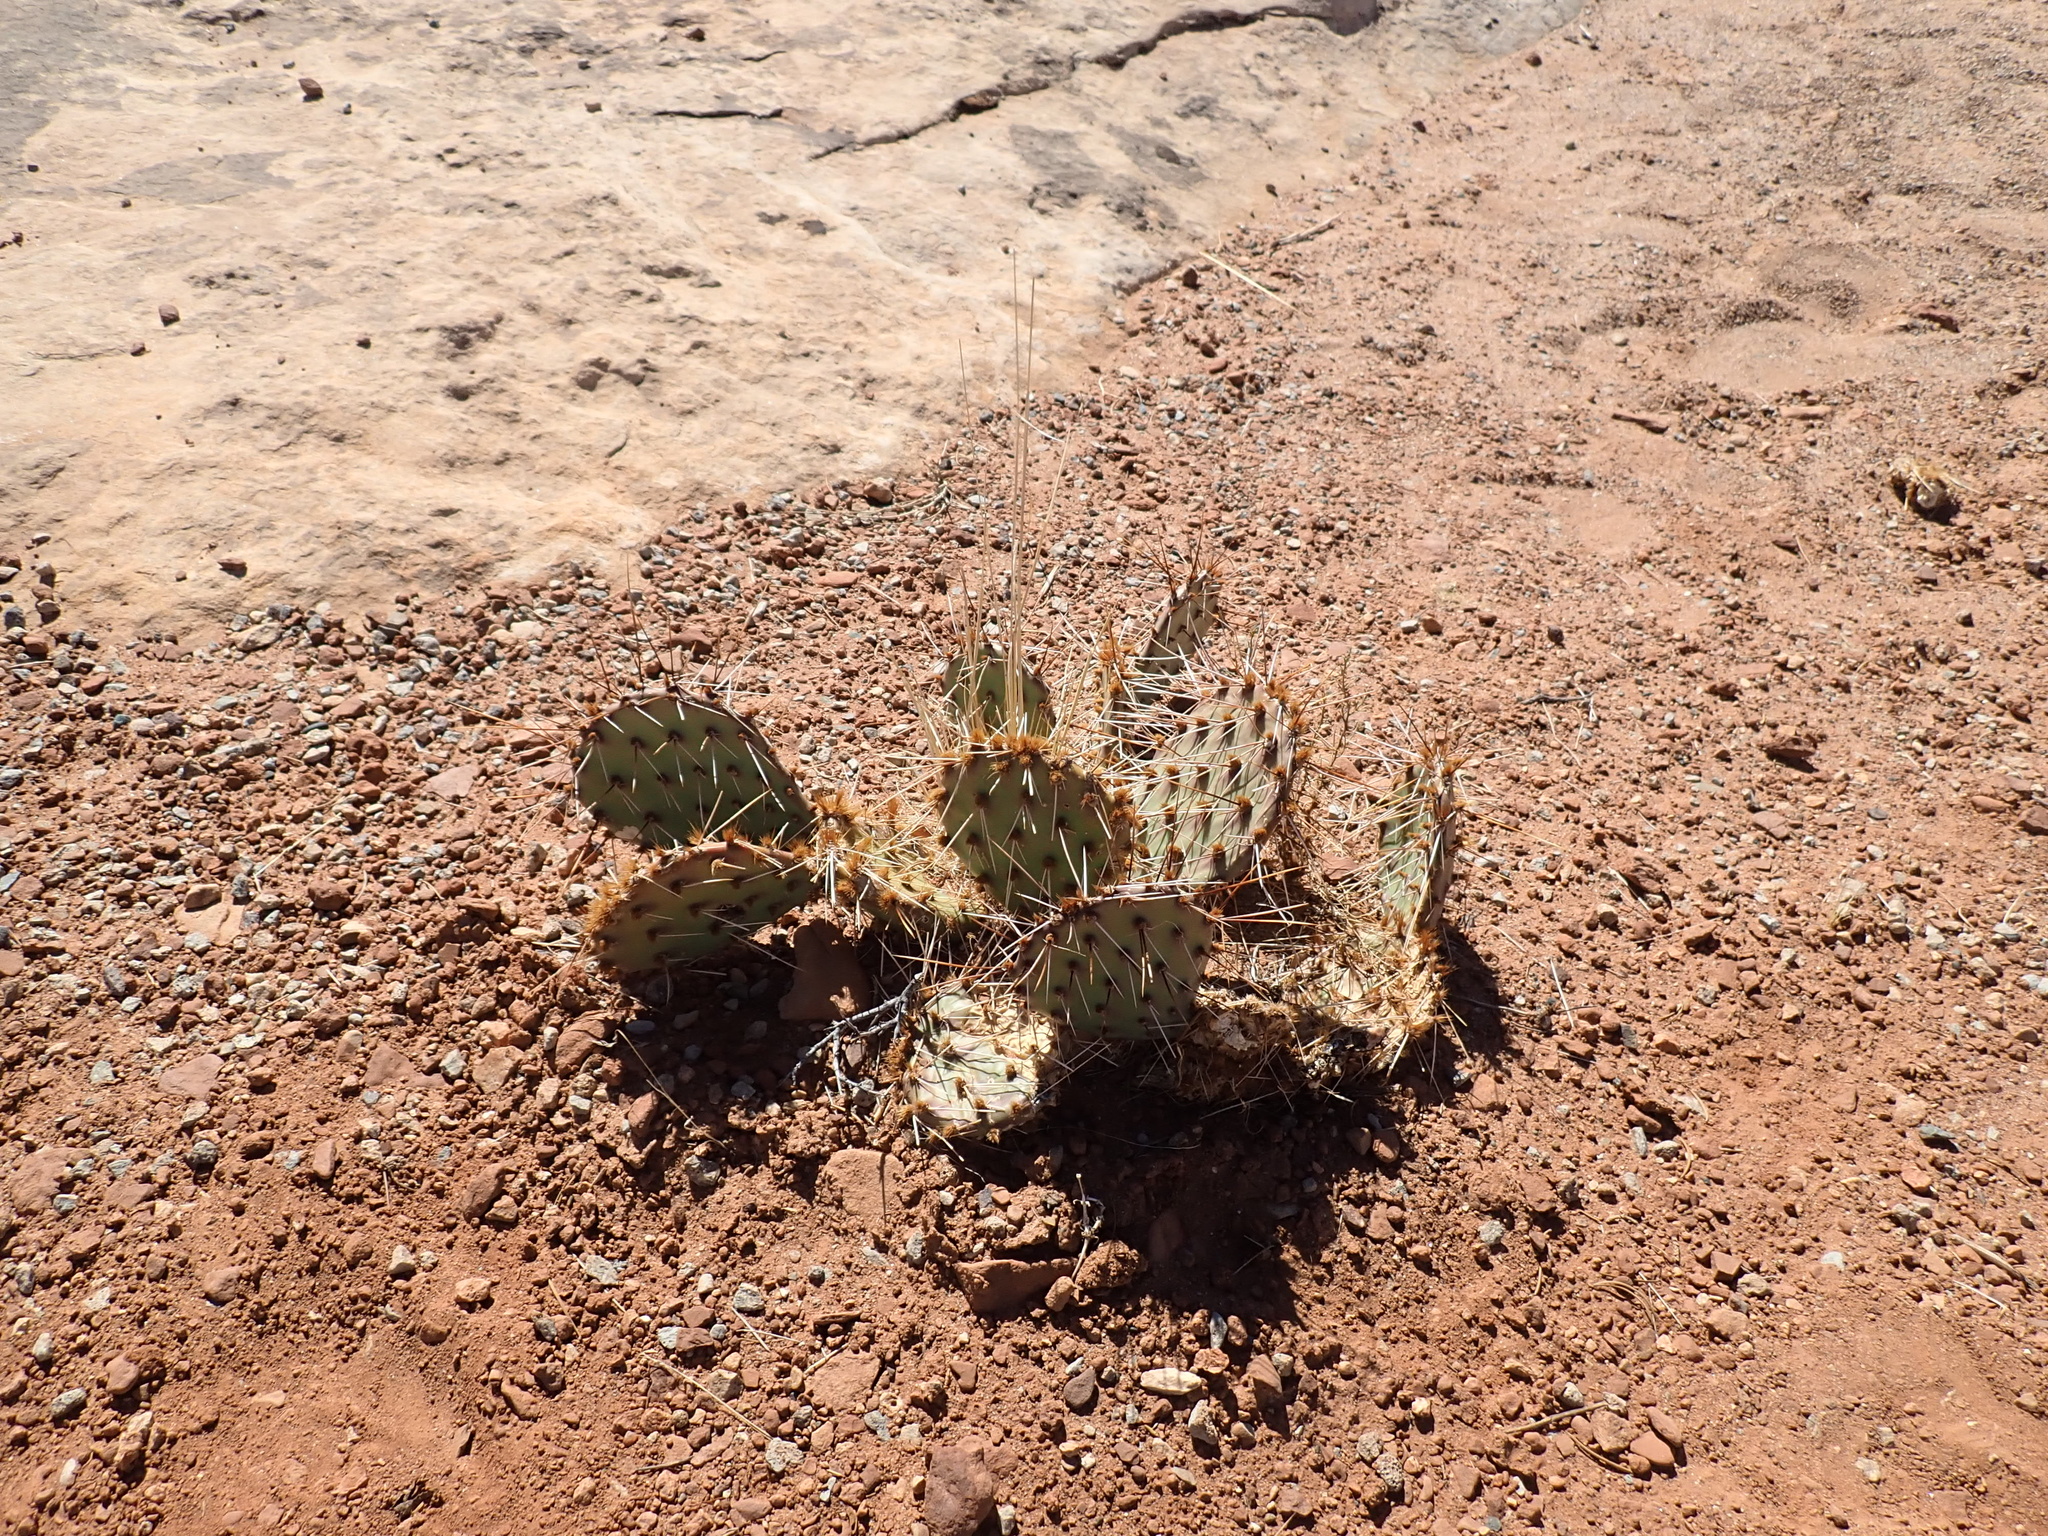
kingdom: Plantae
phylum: Tracheophyta
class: Magnoliopsida
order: Caryophyllales
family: Cactaceae
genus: Opuntia
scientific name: Opuntia phaeacantha
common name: New mexico prickly-pear
